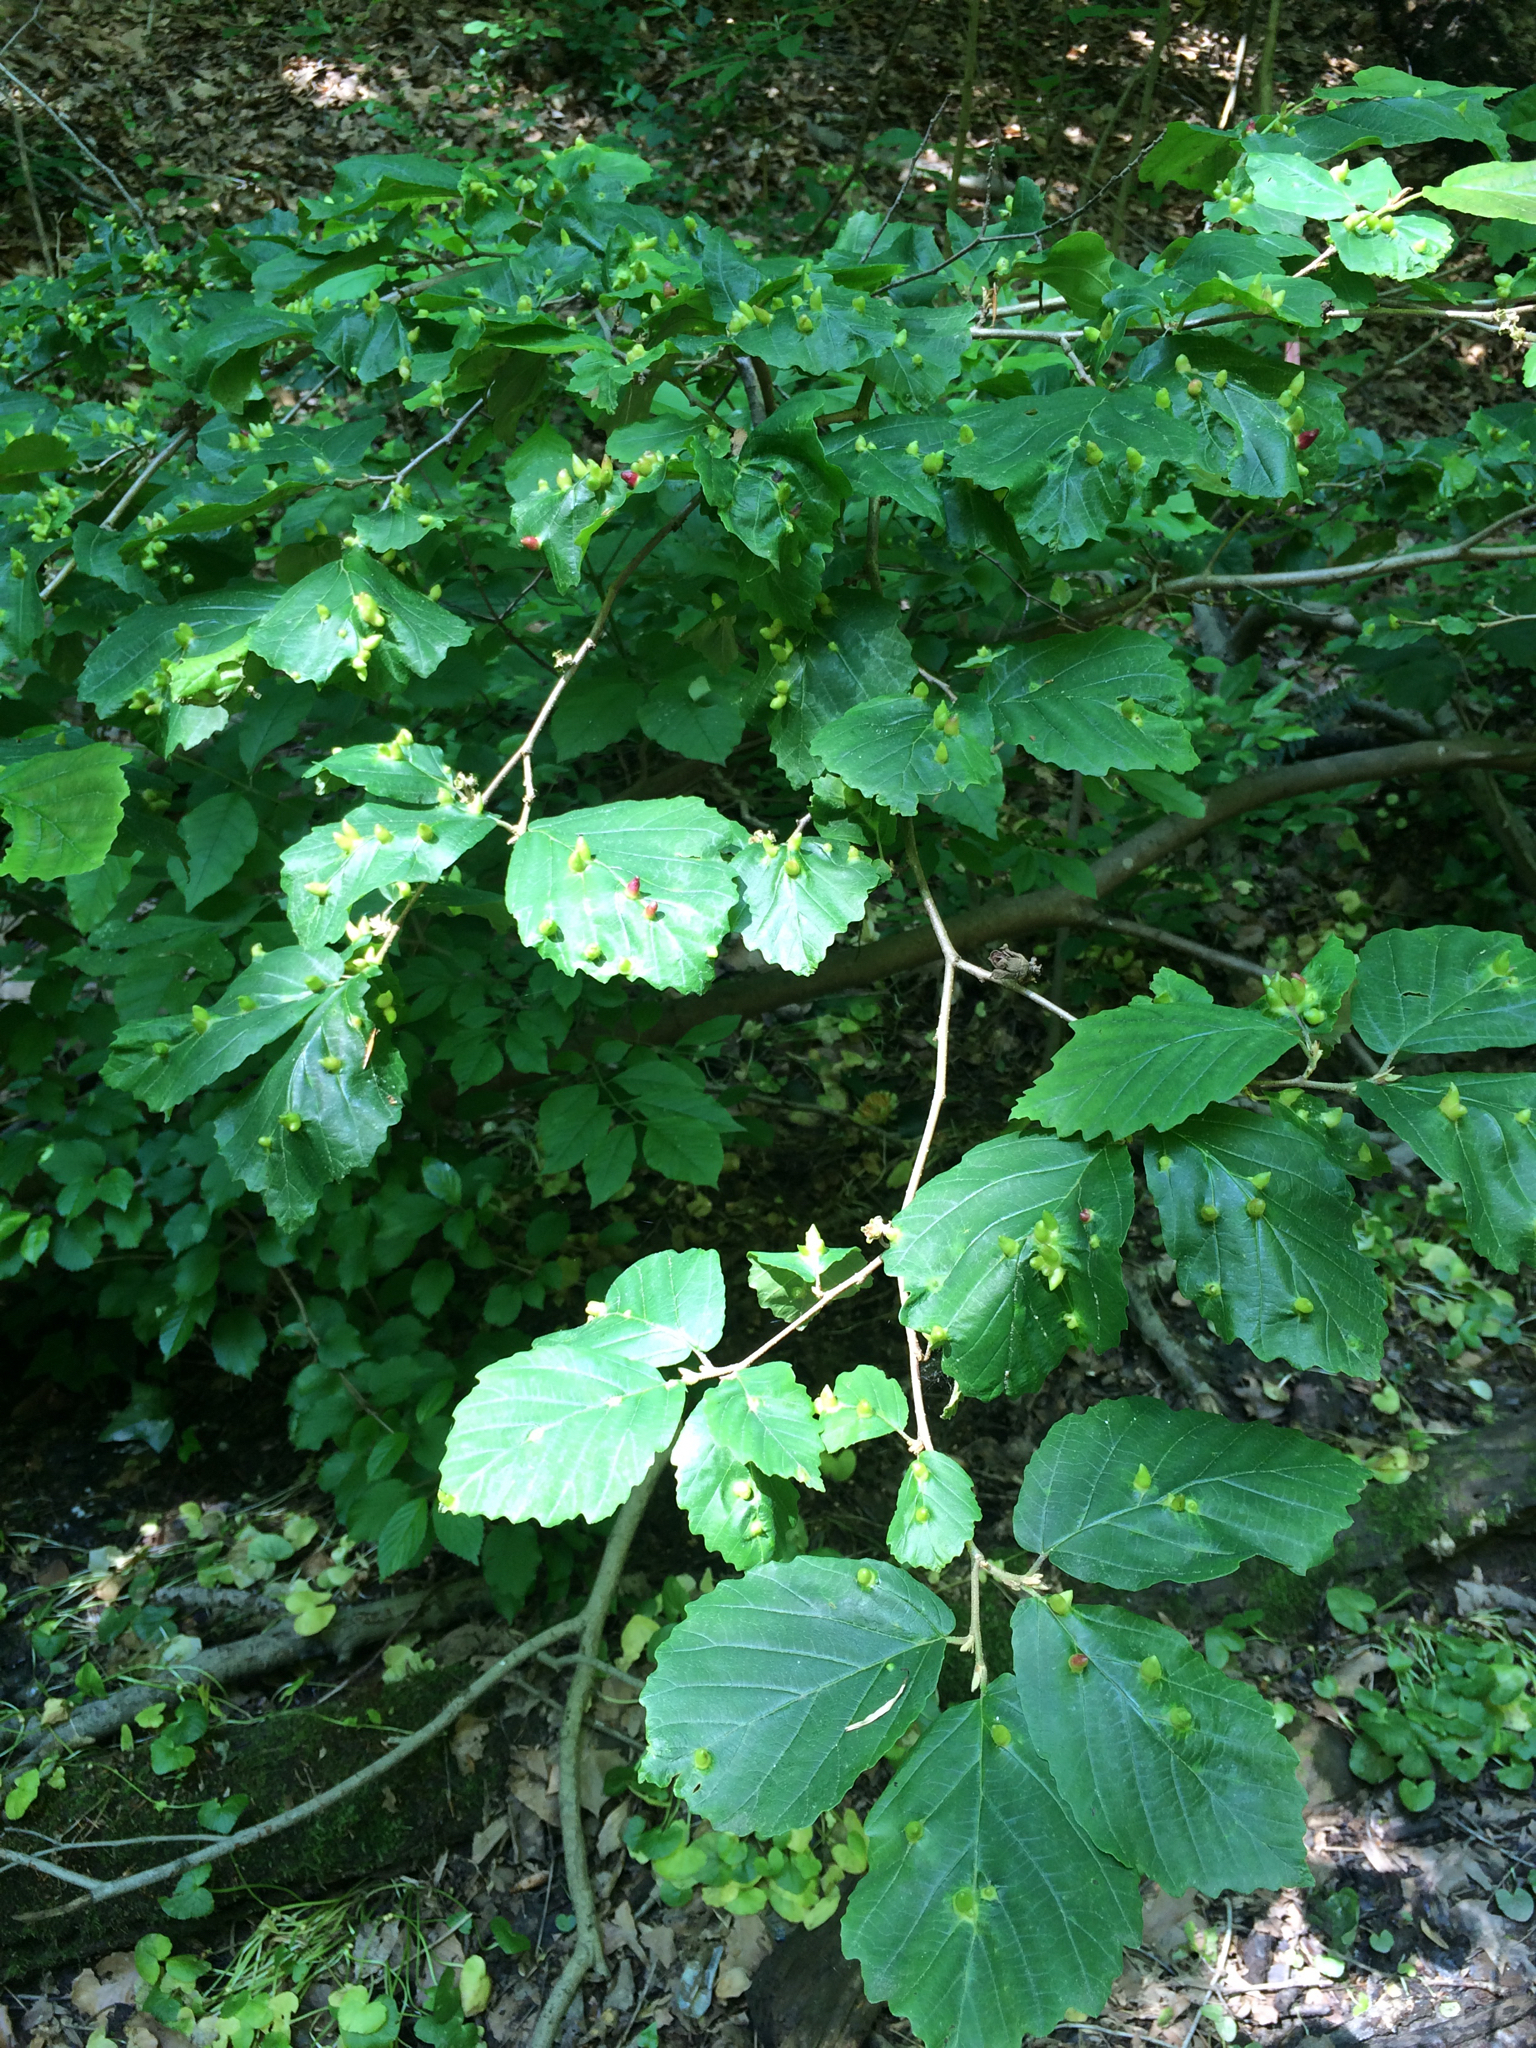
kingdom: Plantae
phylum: Tracheophyta
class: Magnoliopsida
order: Saxifragales
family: Hamamelidaceae
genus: Hamamelis
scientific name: Hamamelis virginiana
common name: Witch-hazel
